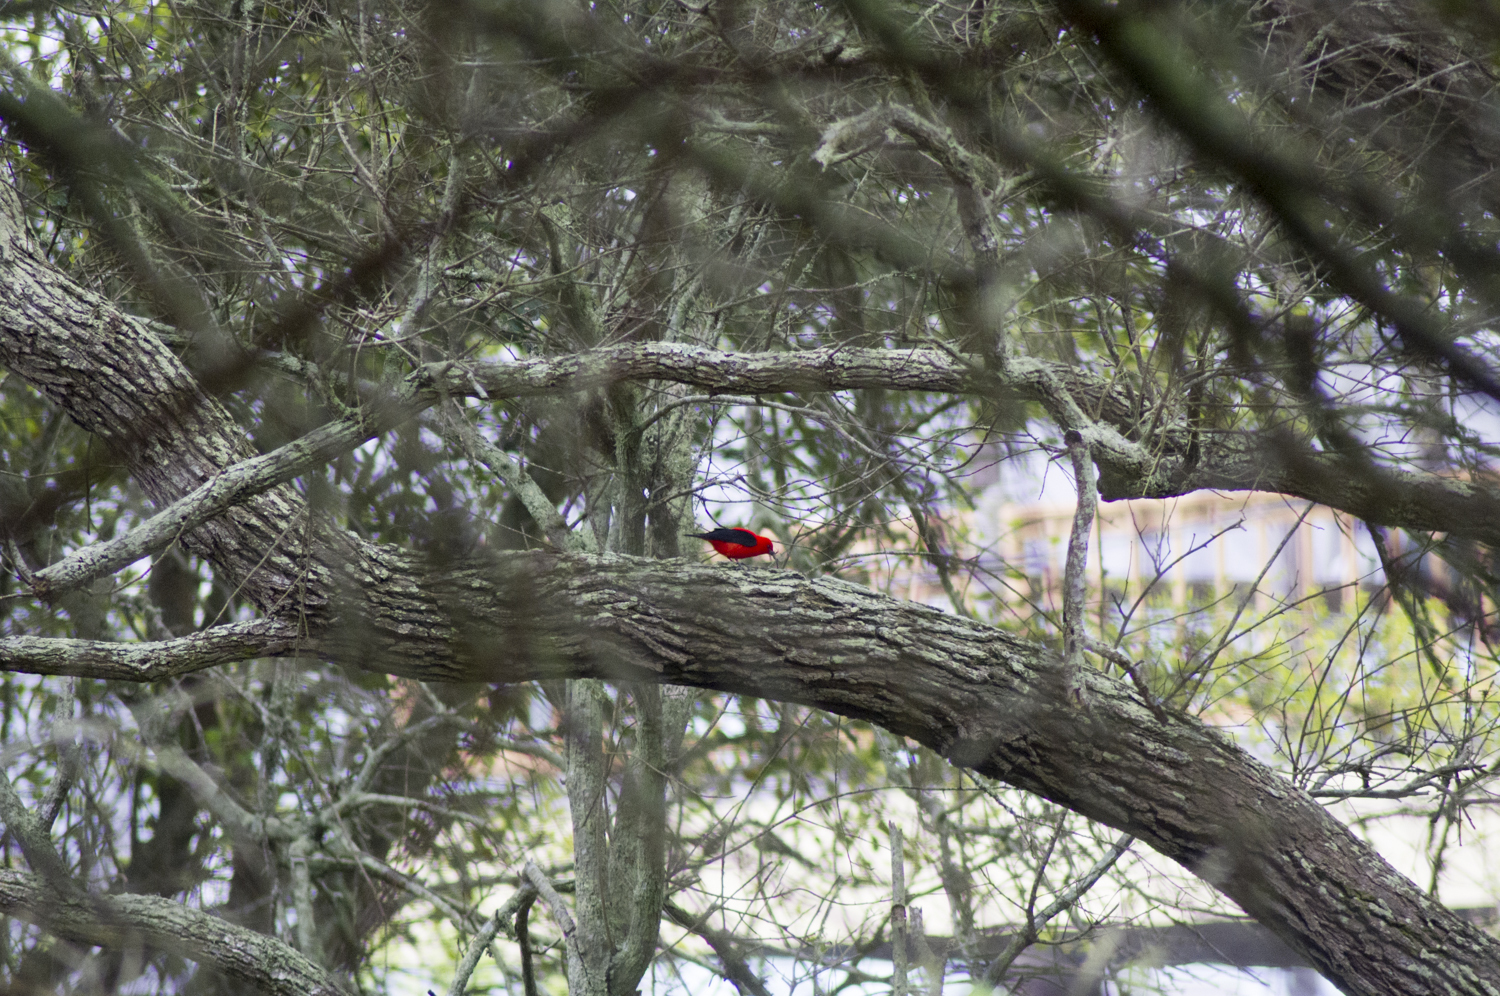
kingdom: Animalia
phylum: Chordata
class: Aves
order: Passeriformes
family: Cardinalidae
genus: Piranga
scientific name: Piranga olivacea
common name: Scarlet tanager
